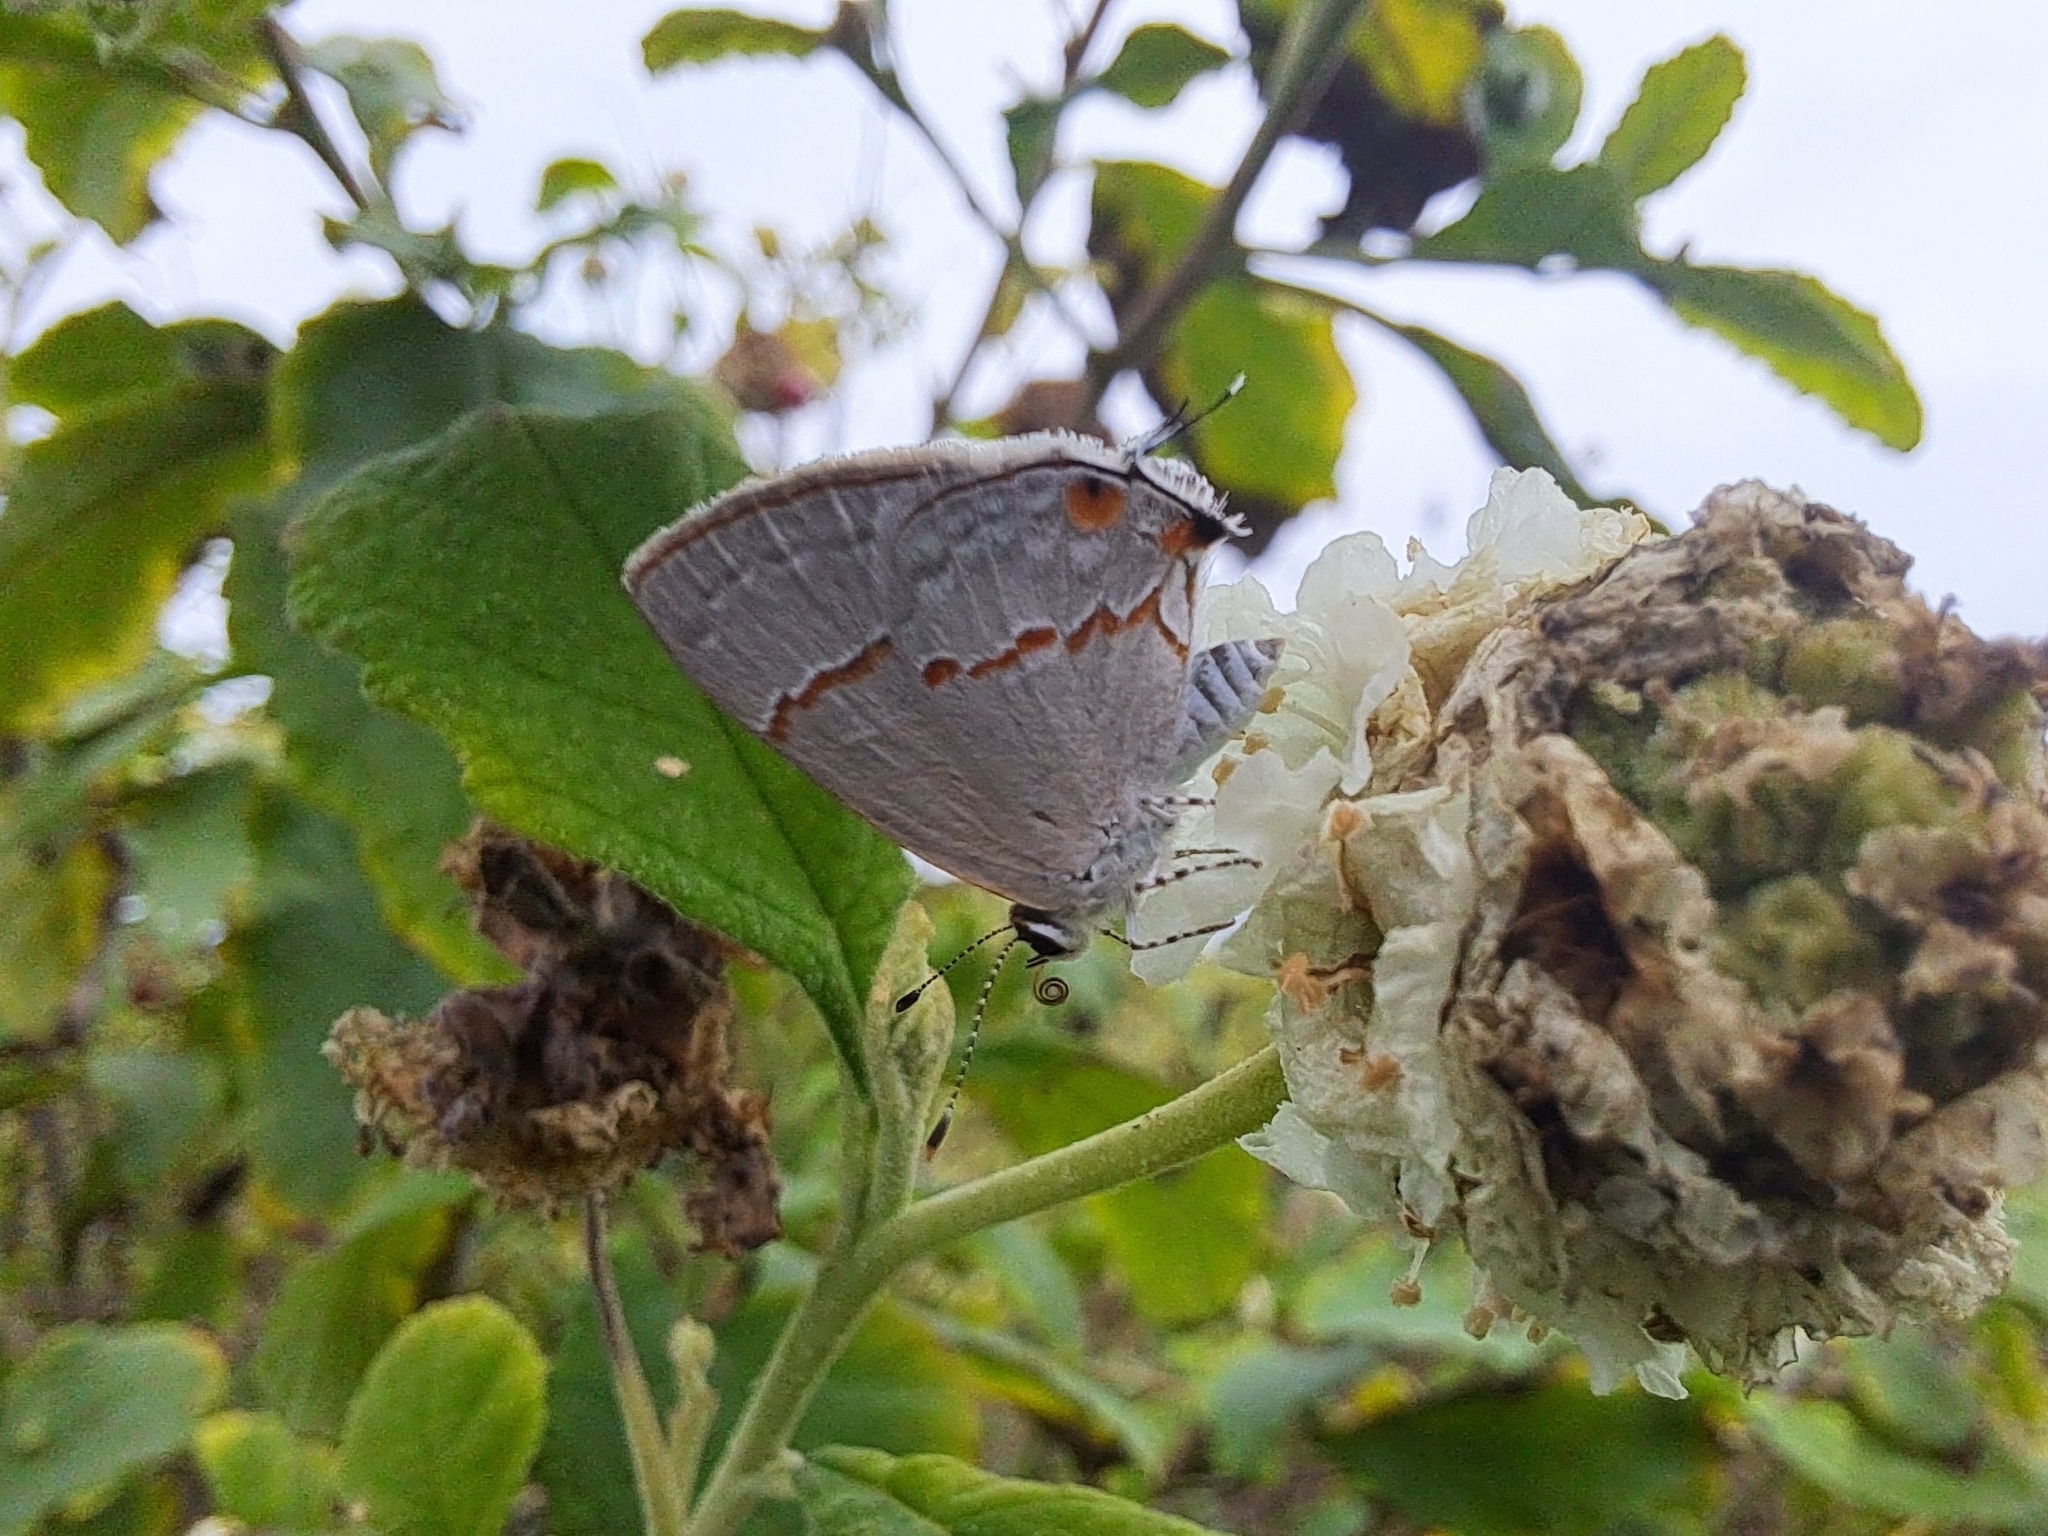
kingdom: Animalia
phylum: Arthropoda
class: Insecta
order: Lepidoptera
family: Lycaenidae
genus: Thecla
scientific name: Thecla azia
